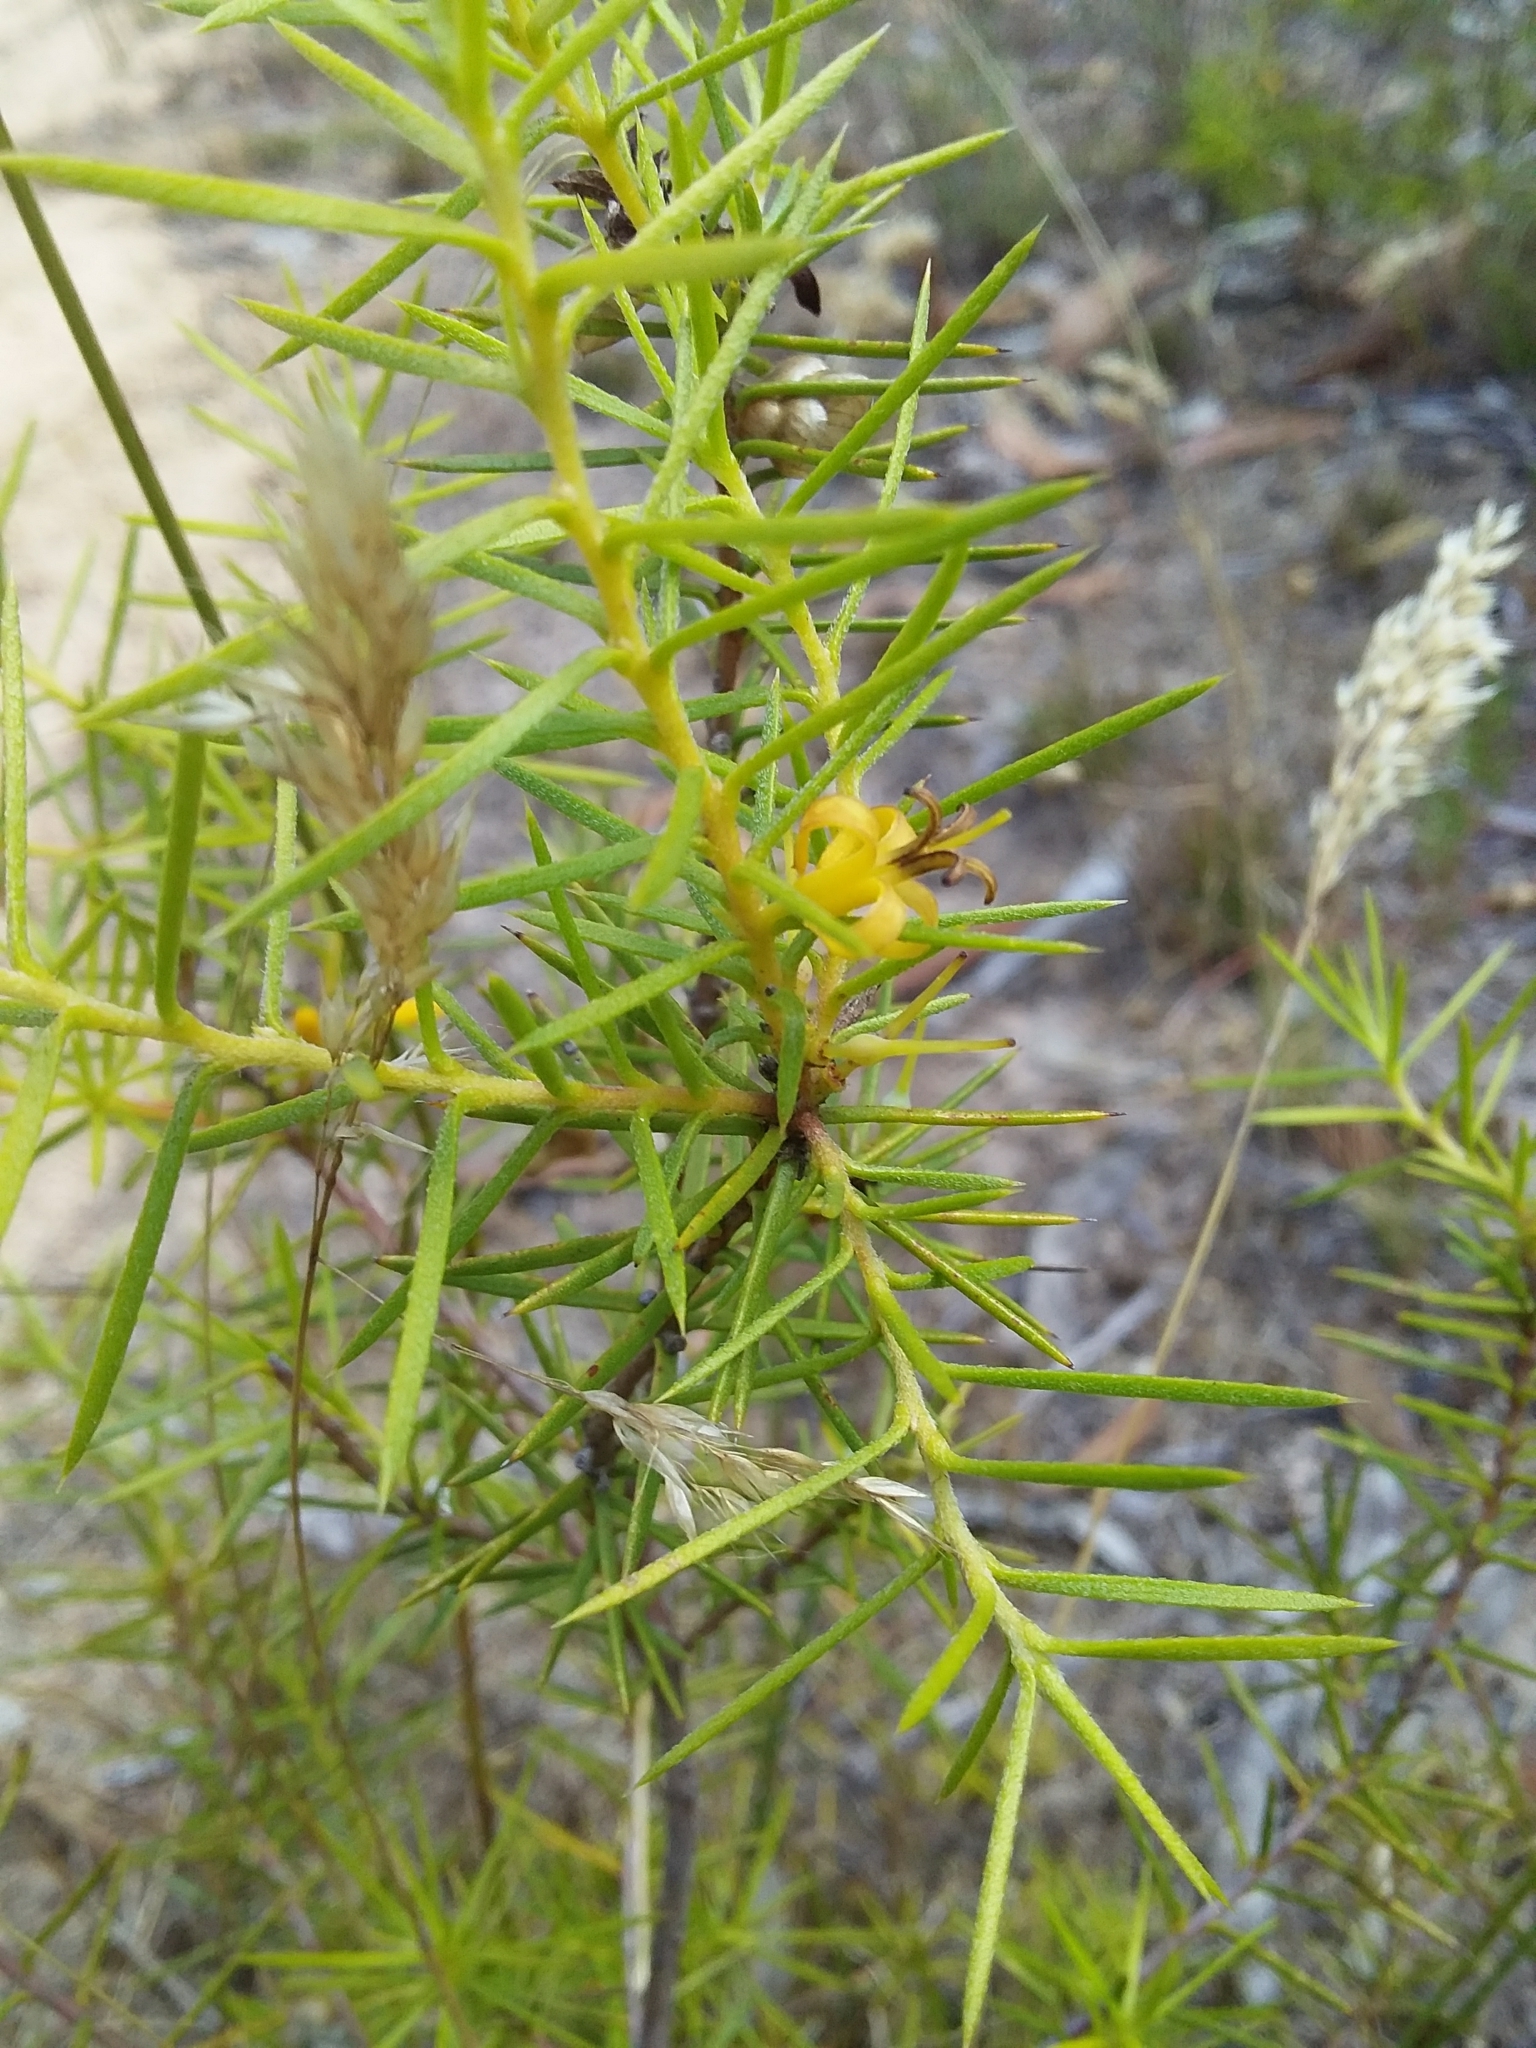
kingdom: Plantae
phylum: Tracheophyta
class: Magnoliopsida
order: Proteales
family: Proteaceae
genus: Persoonia
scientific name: Persoonia juniperina
